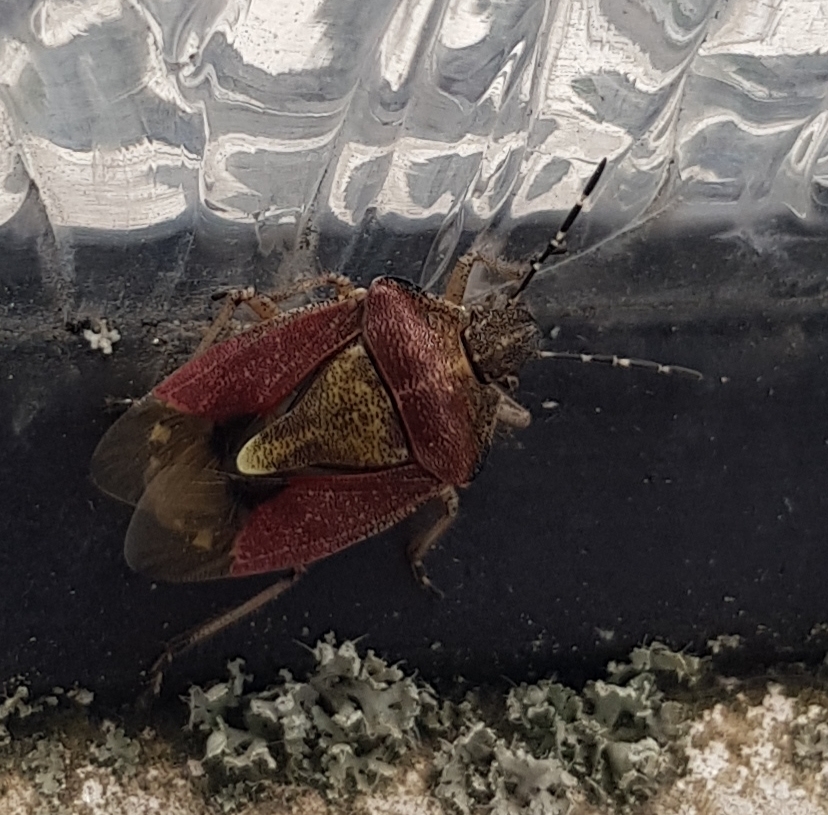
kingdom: Animalia
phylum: Arthropoda
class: Insecta
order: Hemiptera
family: Pentatomidae
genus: Dolycoris
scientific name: Dolycoris baccarum
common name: Sloe bug
